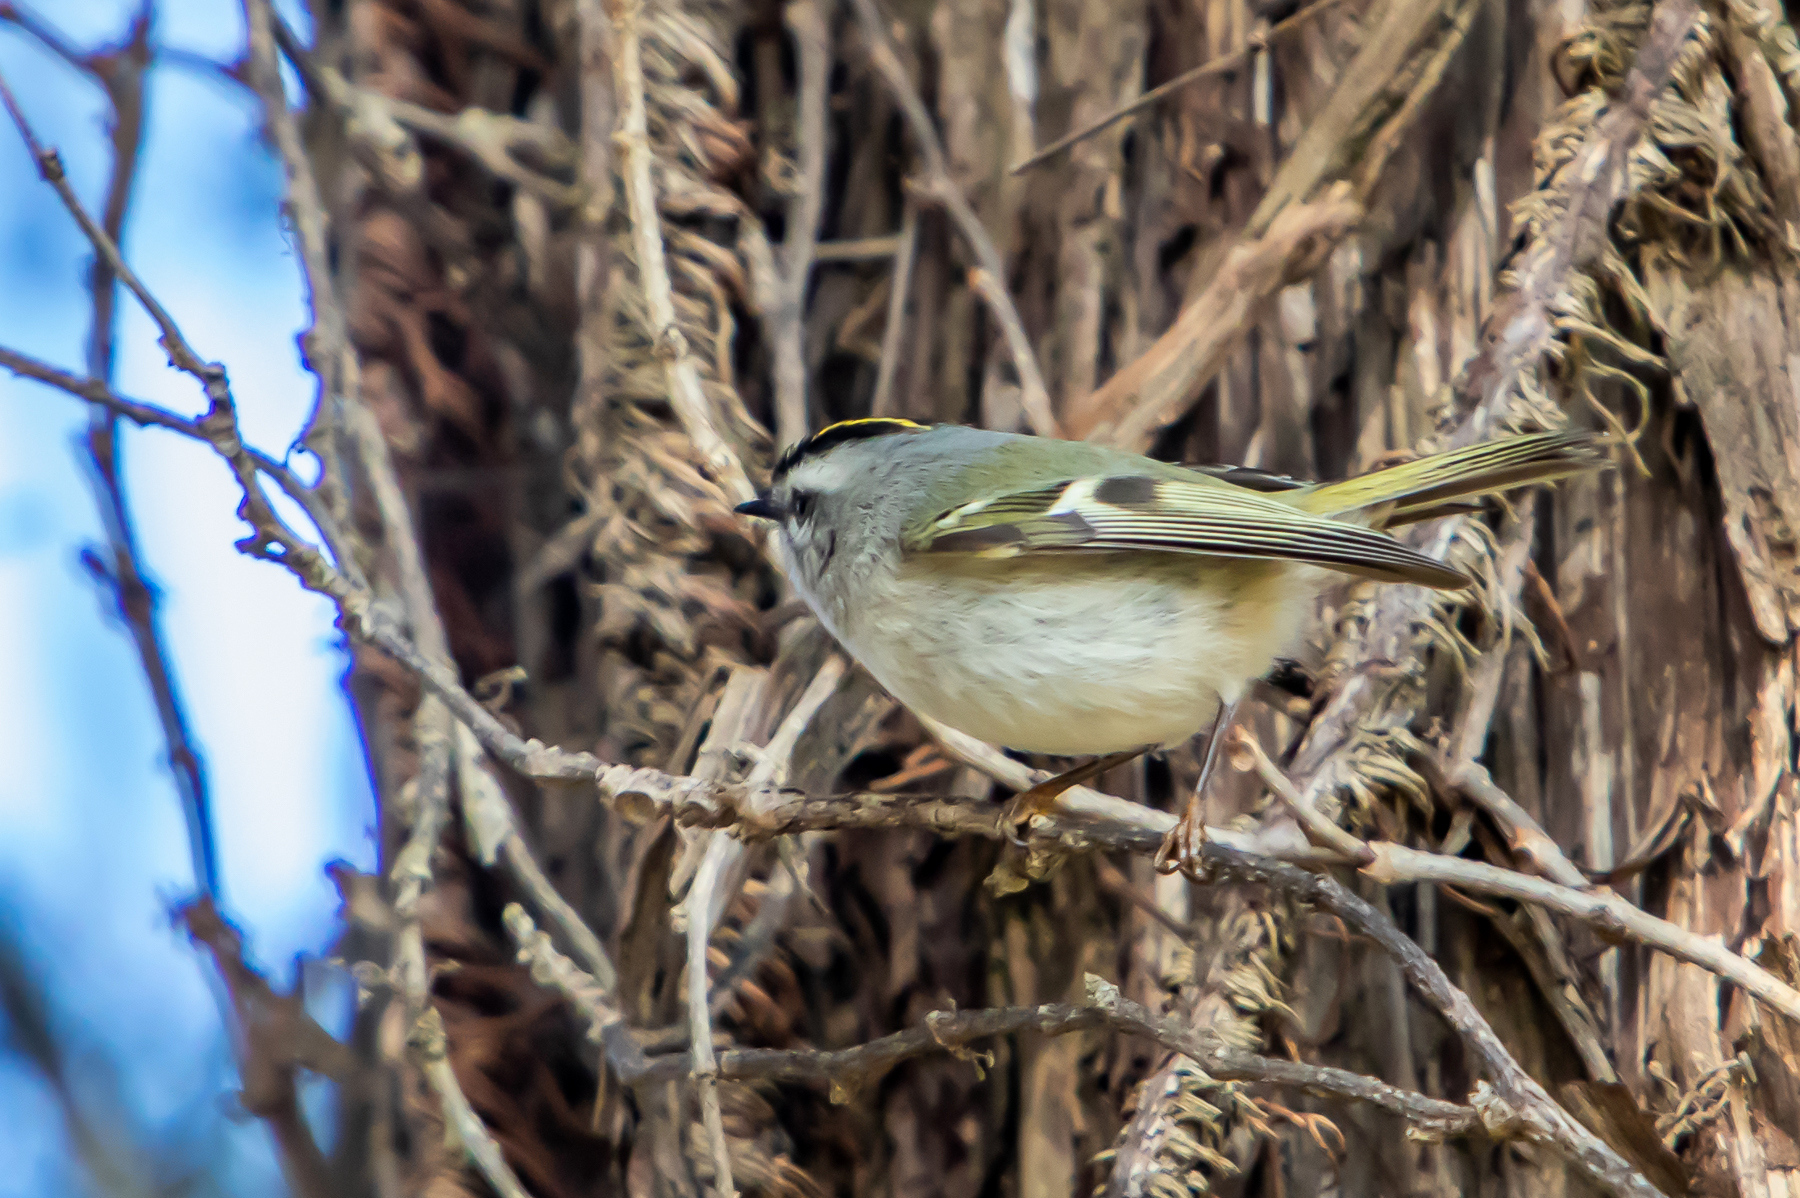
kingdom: Animalia
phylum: Chordata
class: Aves
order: Passeriformes
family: Regulidae
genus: Regulus
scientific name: Regulus satrapa
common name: Golden-crowned kinglet
